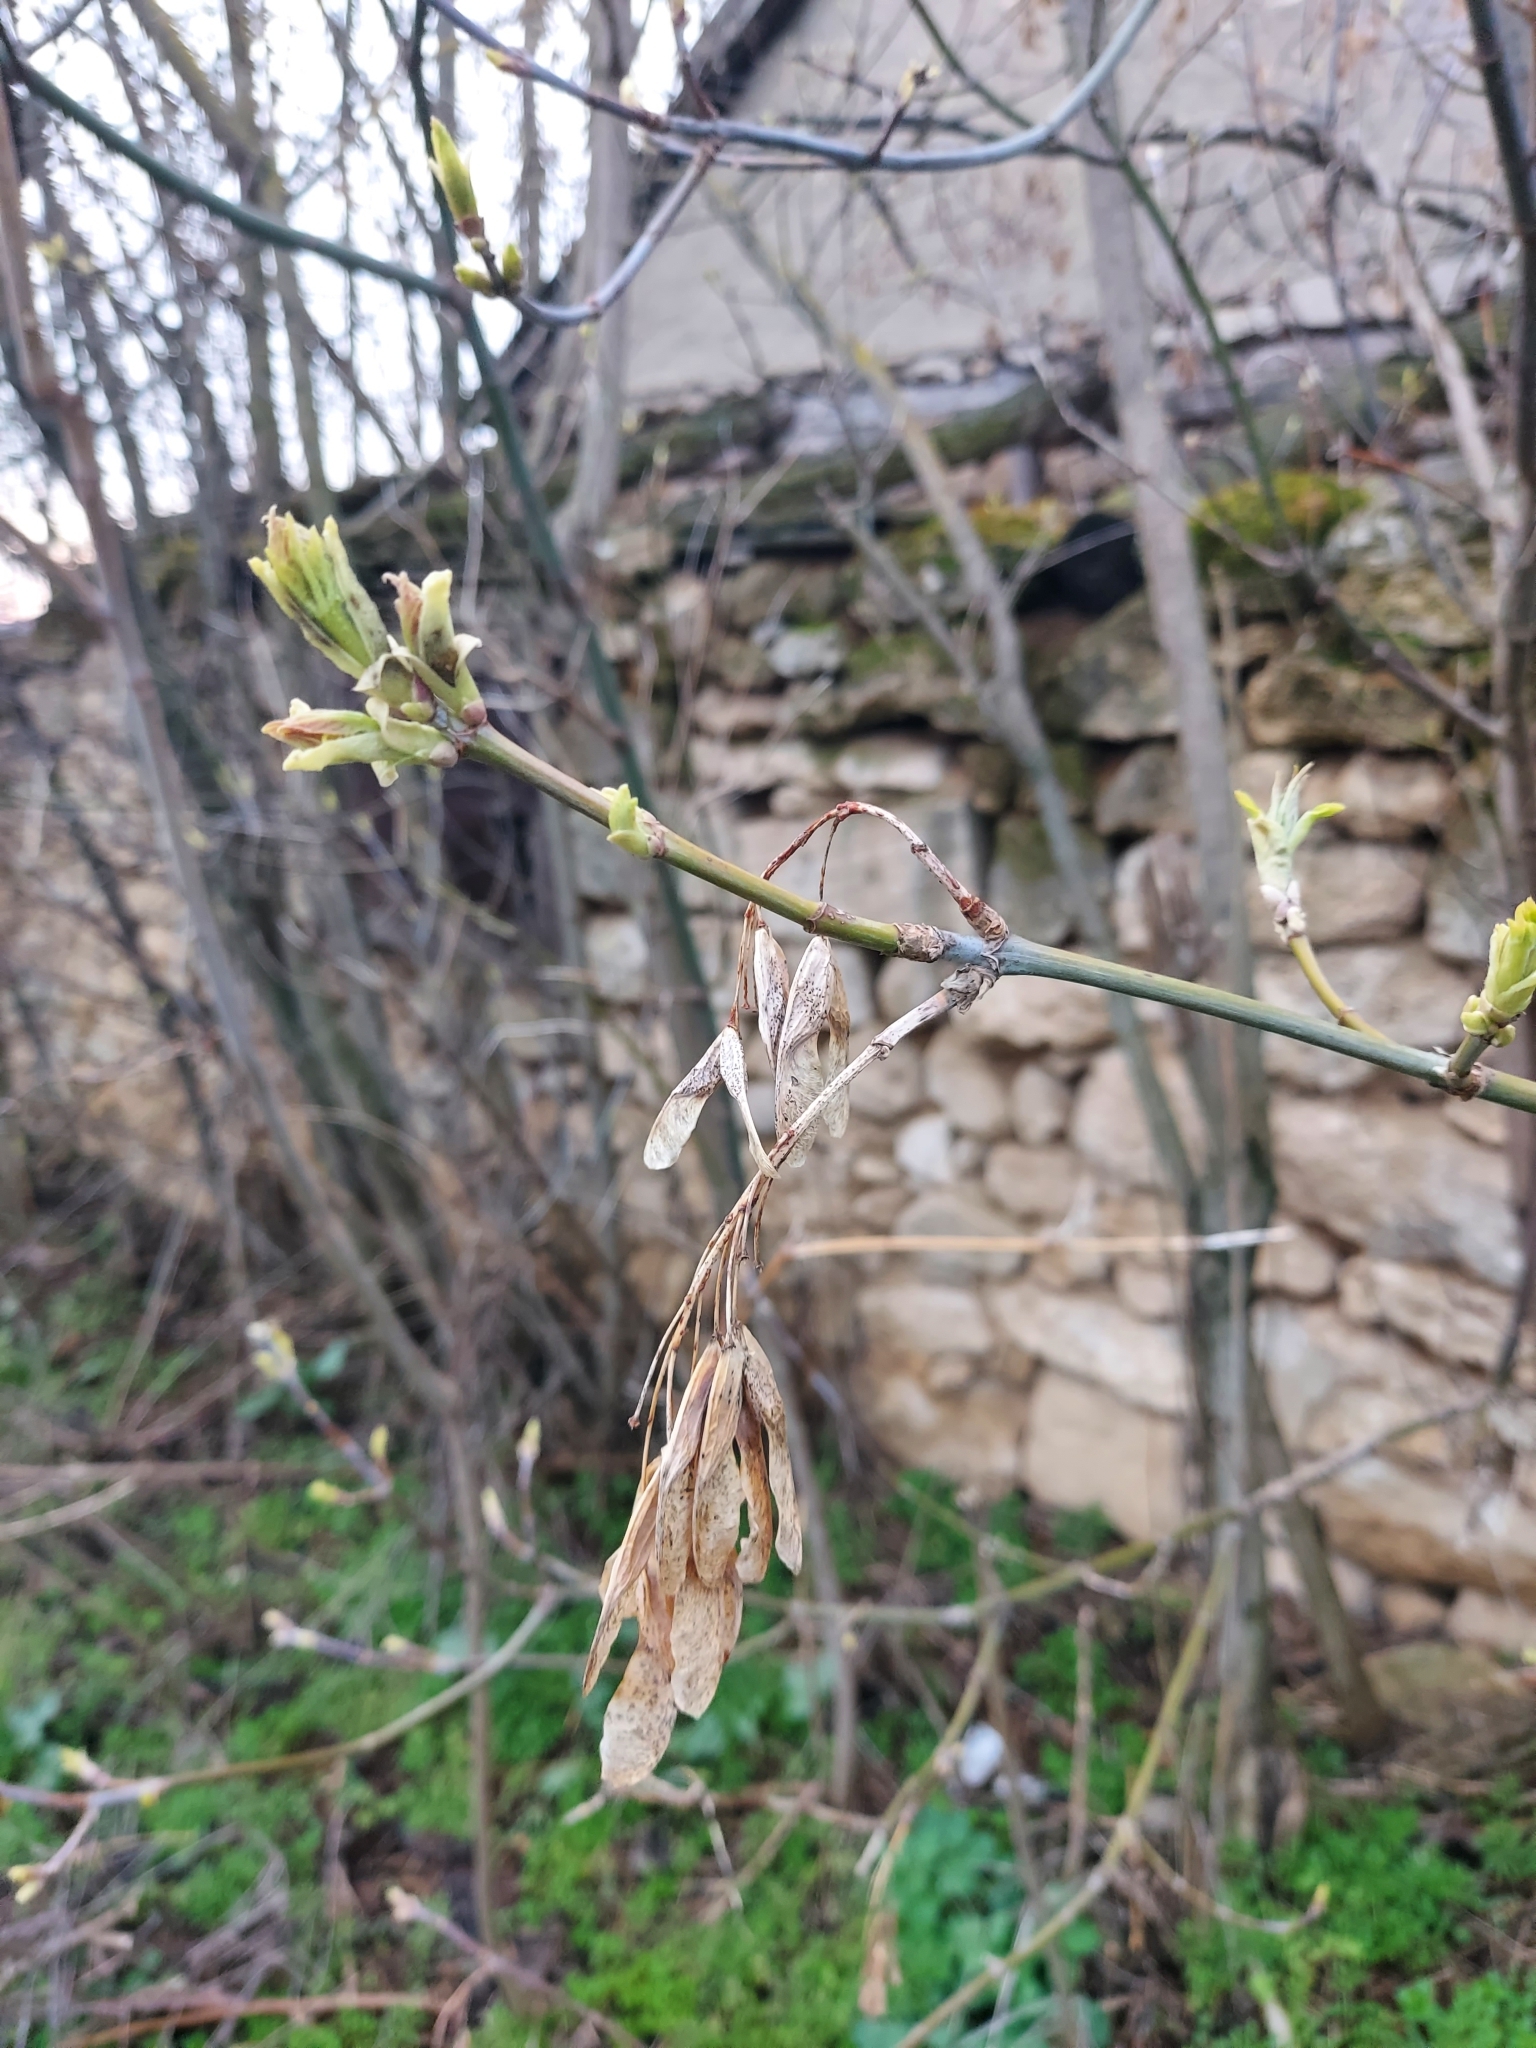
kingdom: Plantae
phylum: Tracheophyta
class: Magnoliopsida
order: Sapindales
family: Sapindaceae
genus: Acer
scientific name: Acer negundo
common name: Ashleaf maple
